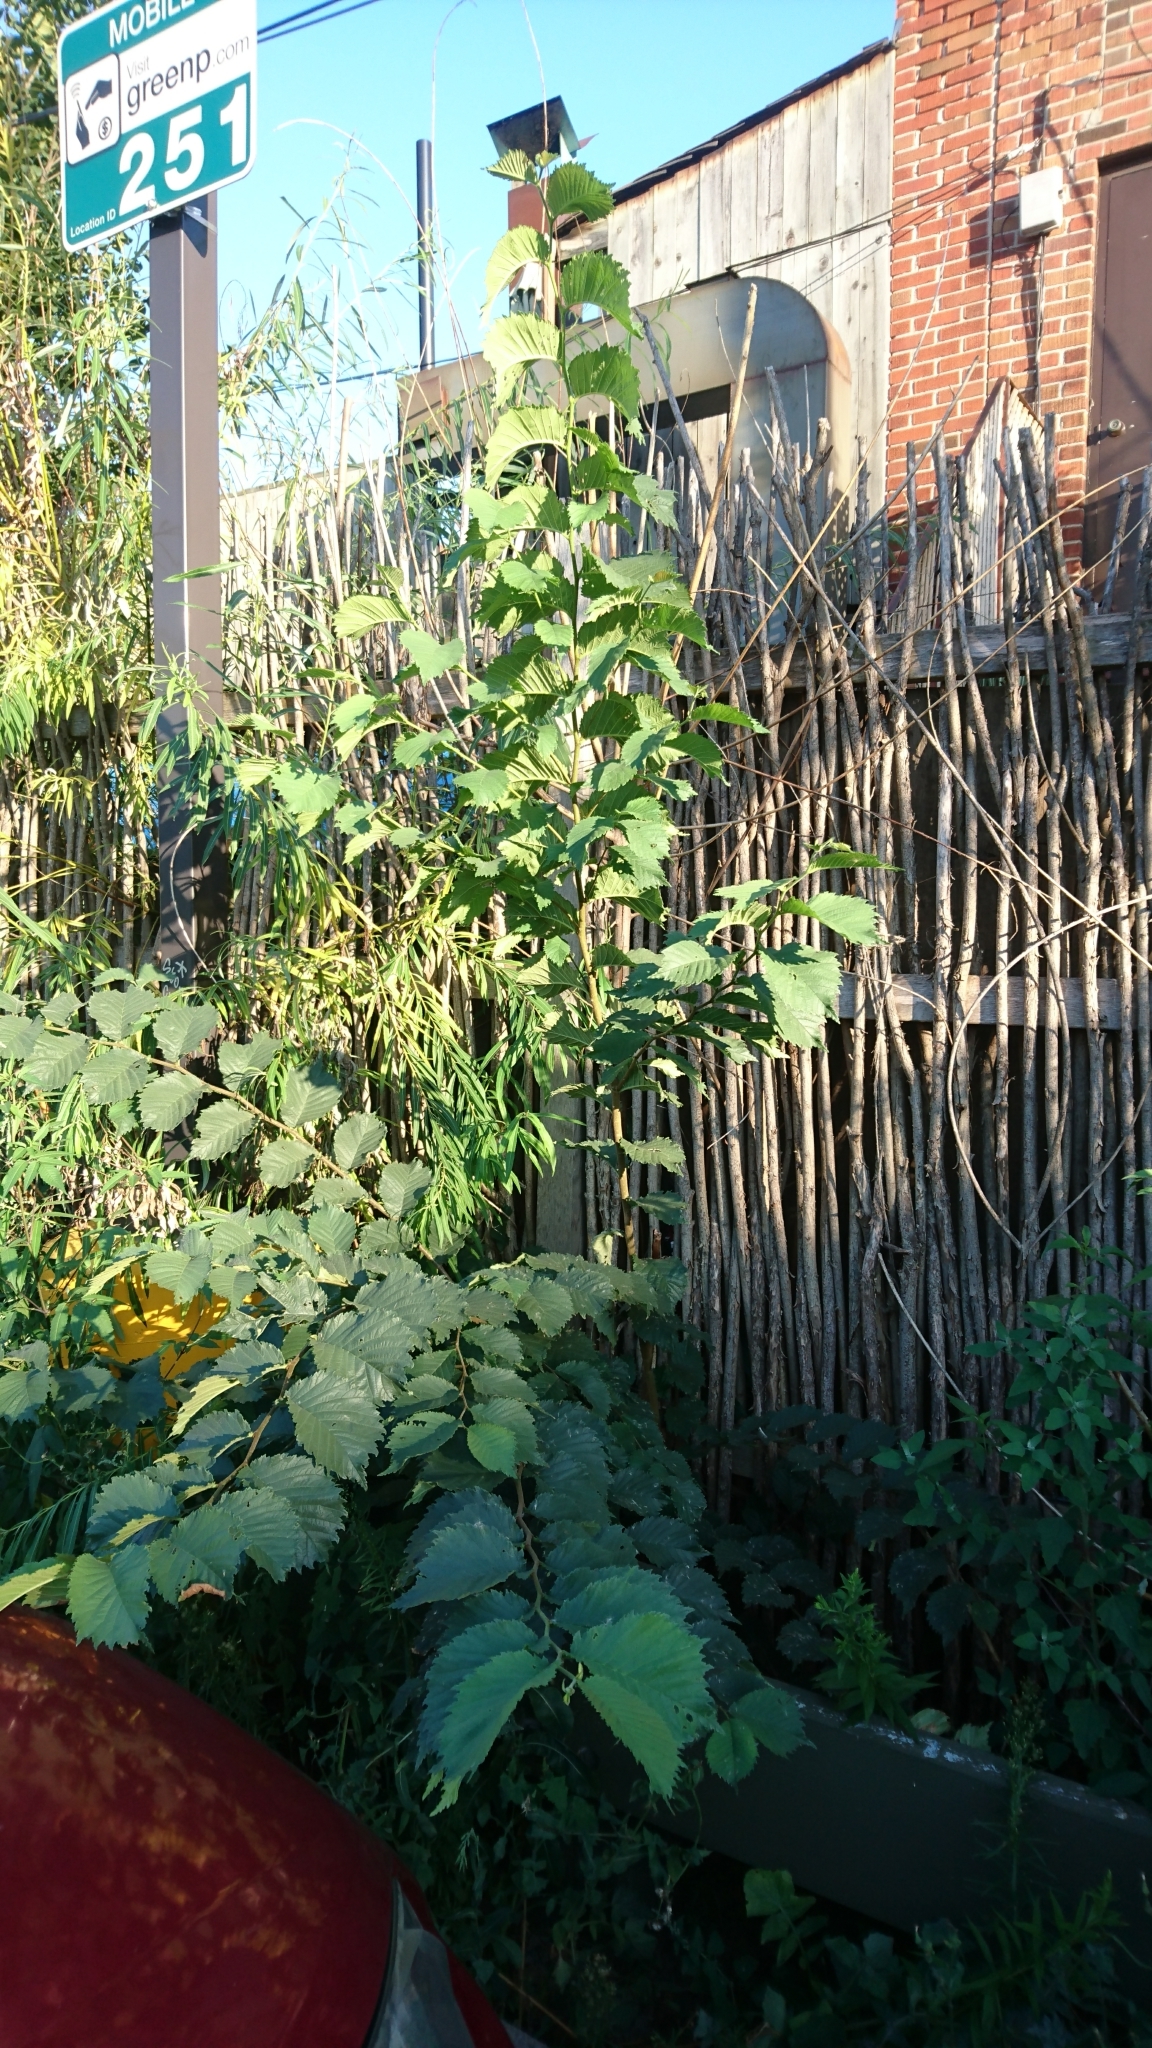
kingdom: Plantae
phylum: Tracheophyta
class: Magnoliopsida
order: Rosales
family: Ulmaceae
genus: Ulmus
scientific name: Ulmus glabra
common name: Wych elm
